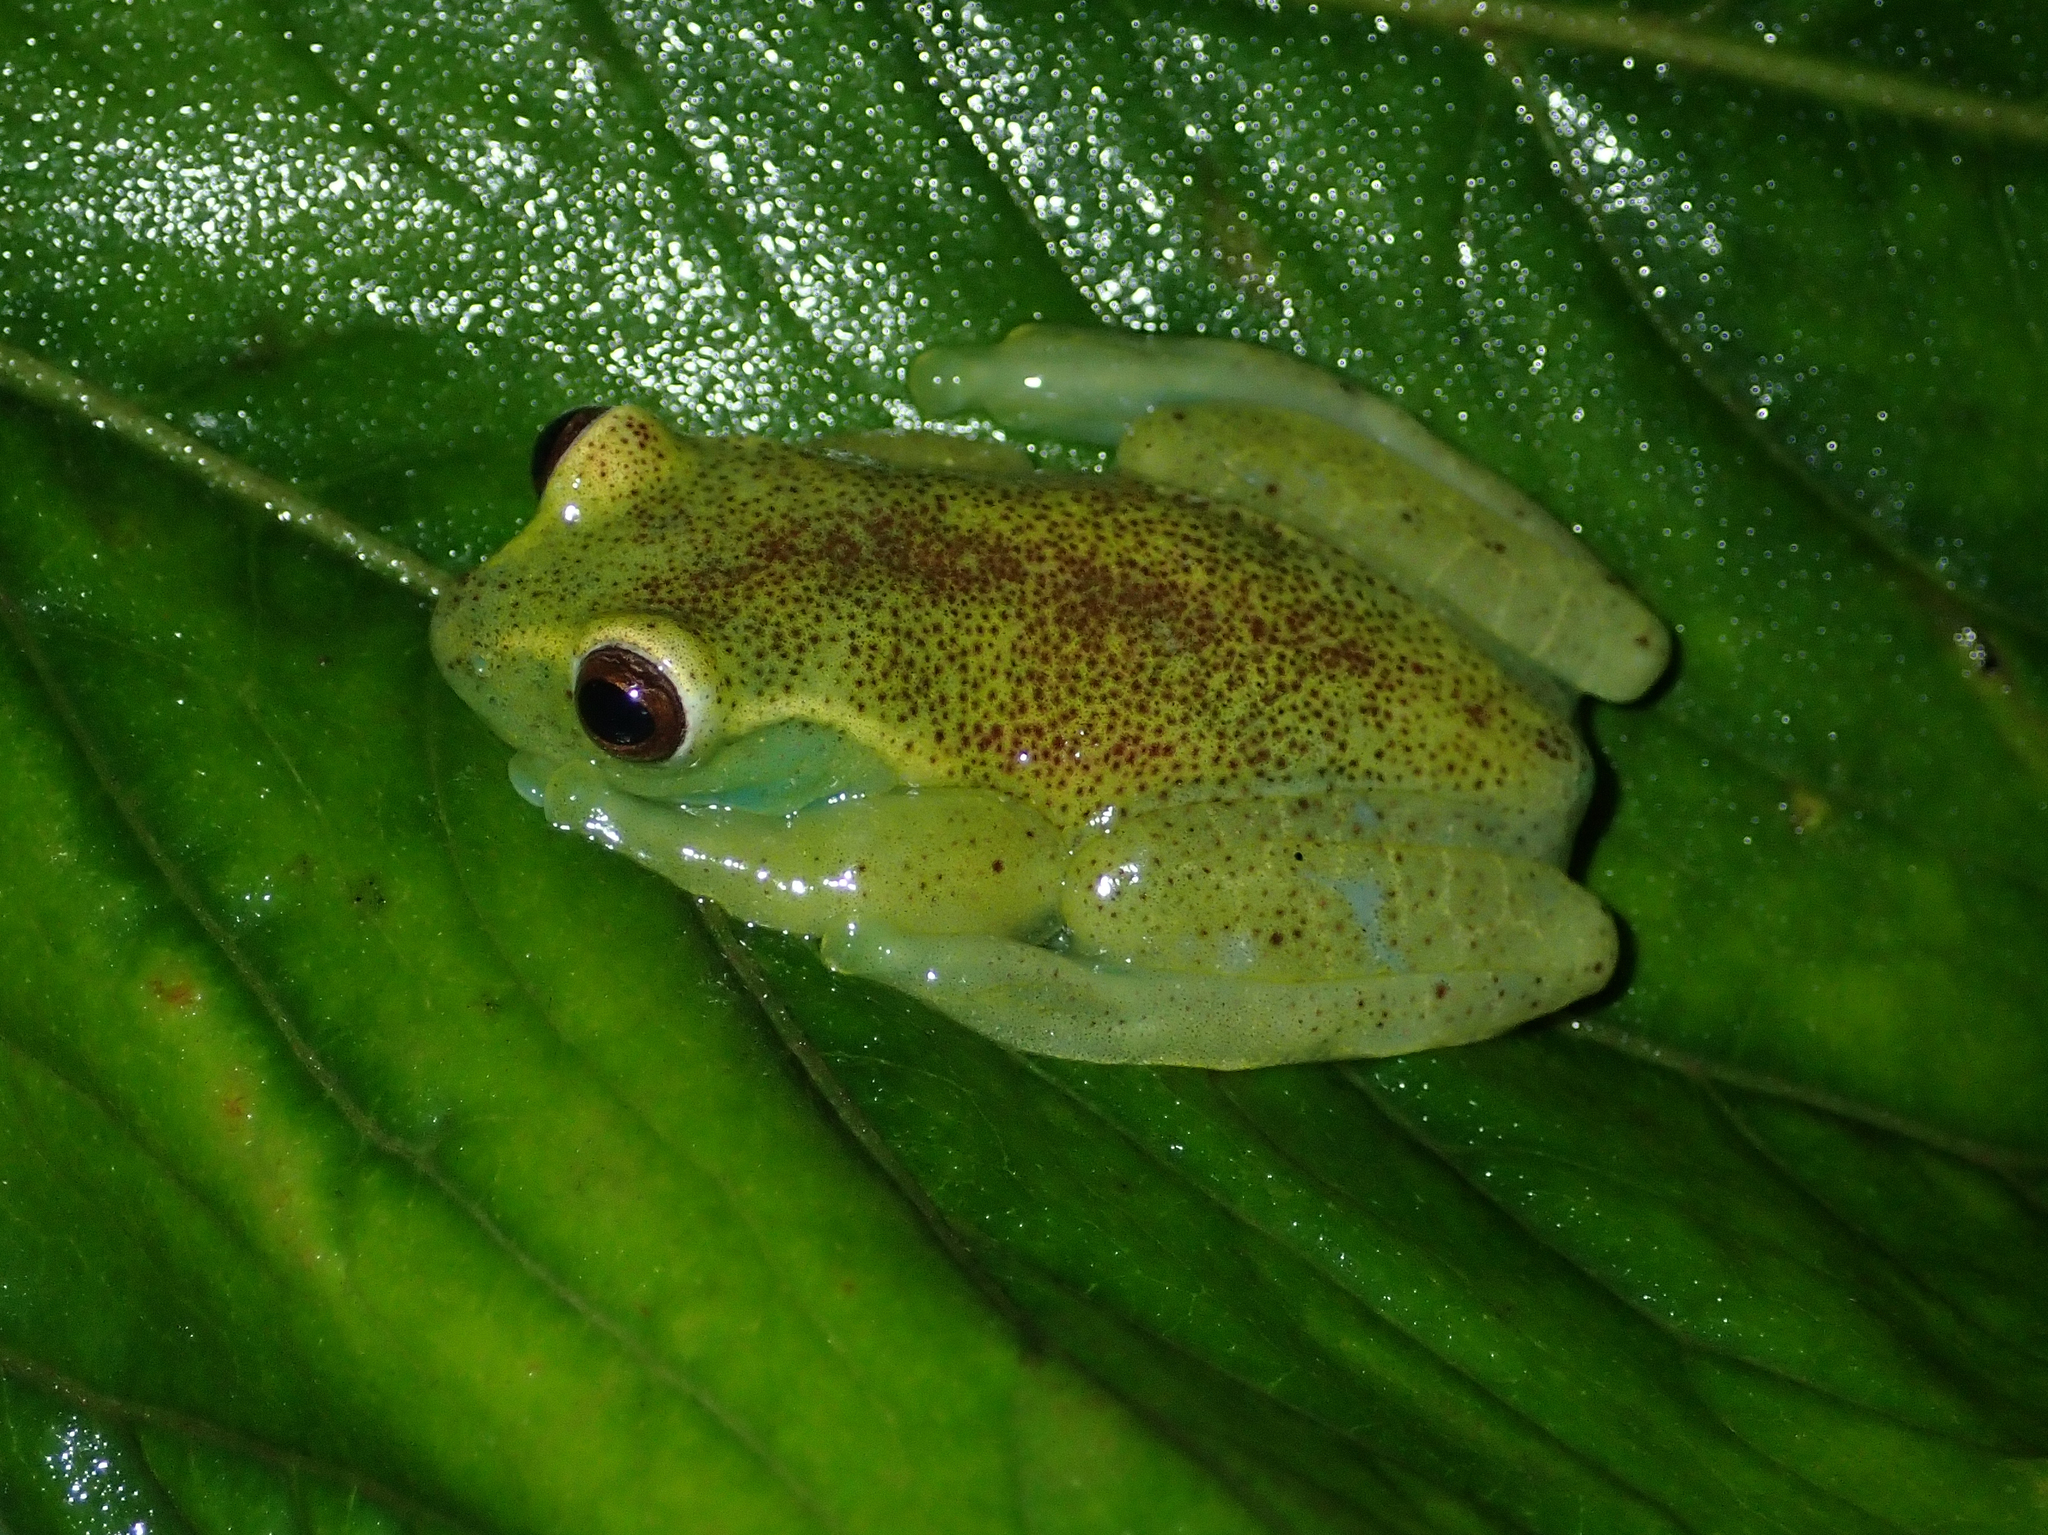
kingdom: Animalia
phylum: Chordata
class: Amphibia
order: Anura
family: Hylidae
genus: Hyloscirtus
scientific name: Hyloscirtus alytolylax
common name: Tandapi treefrog
